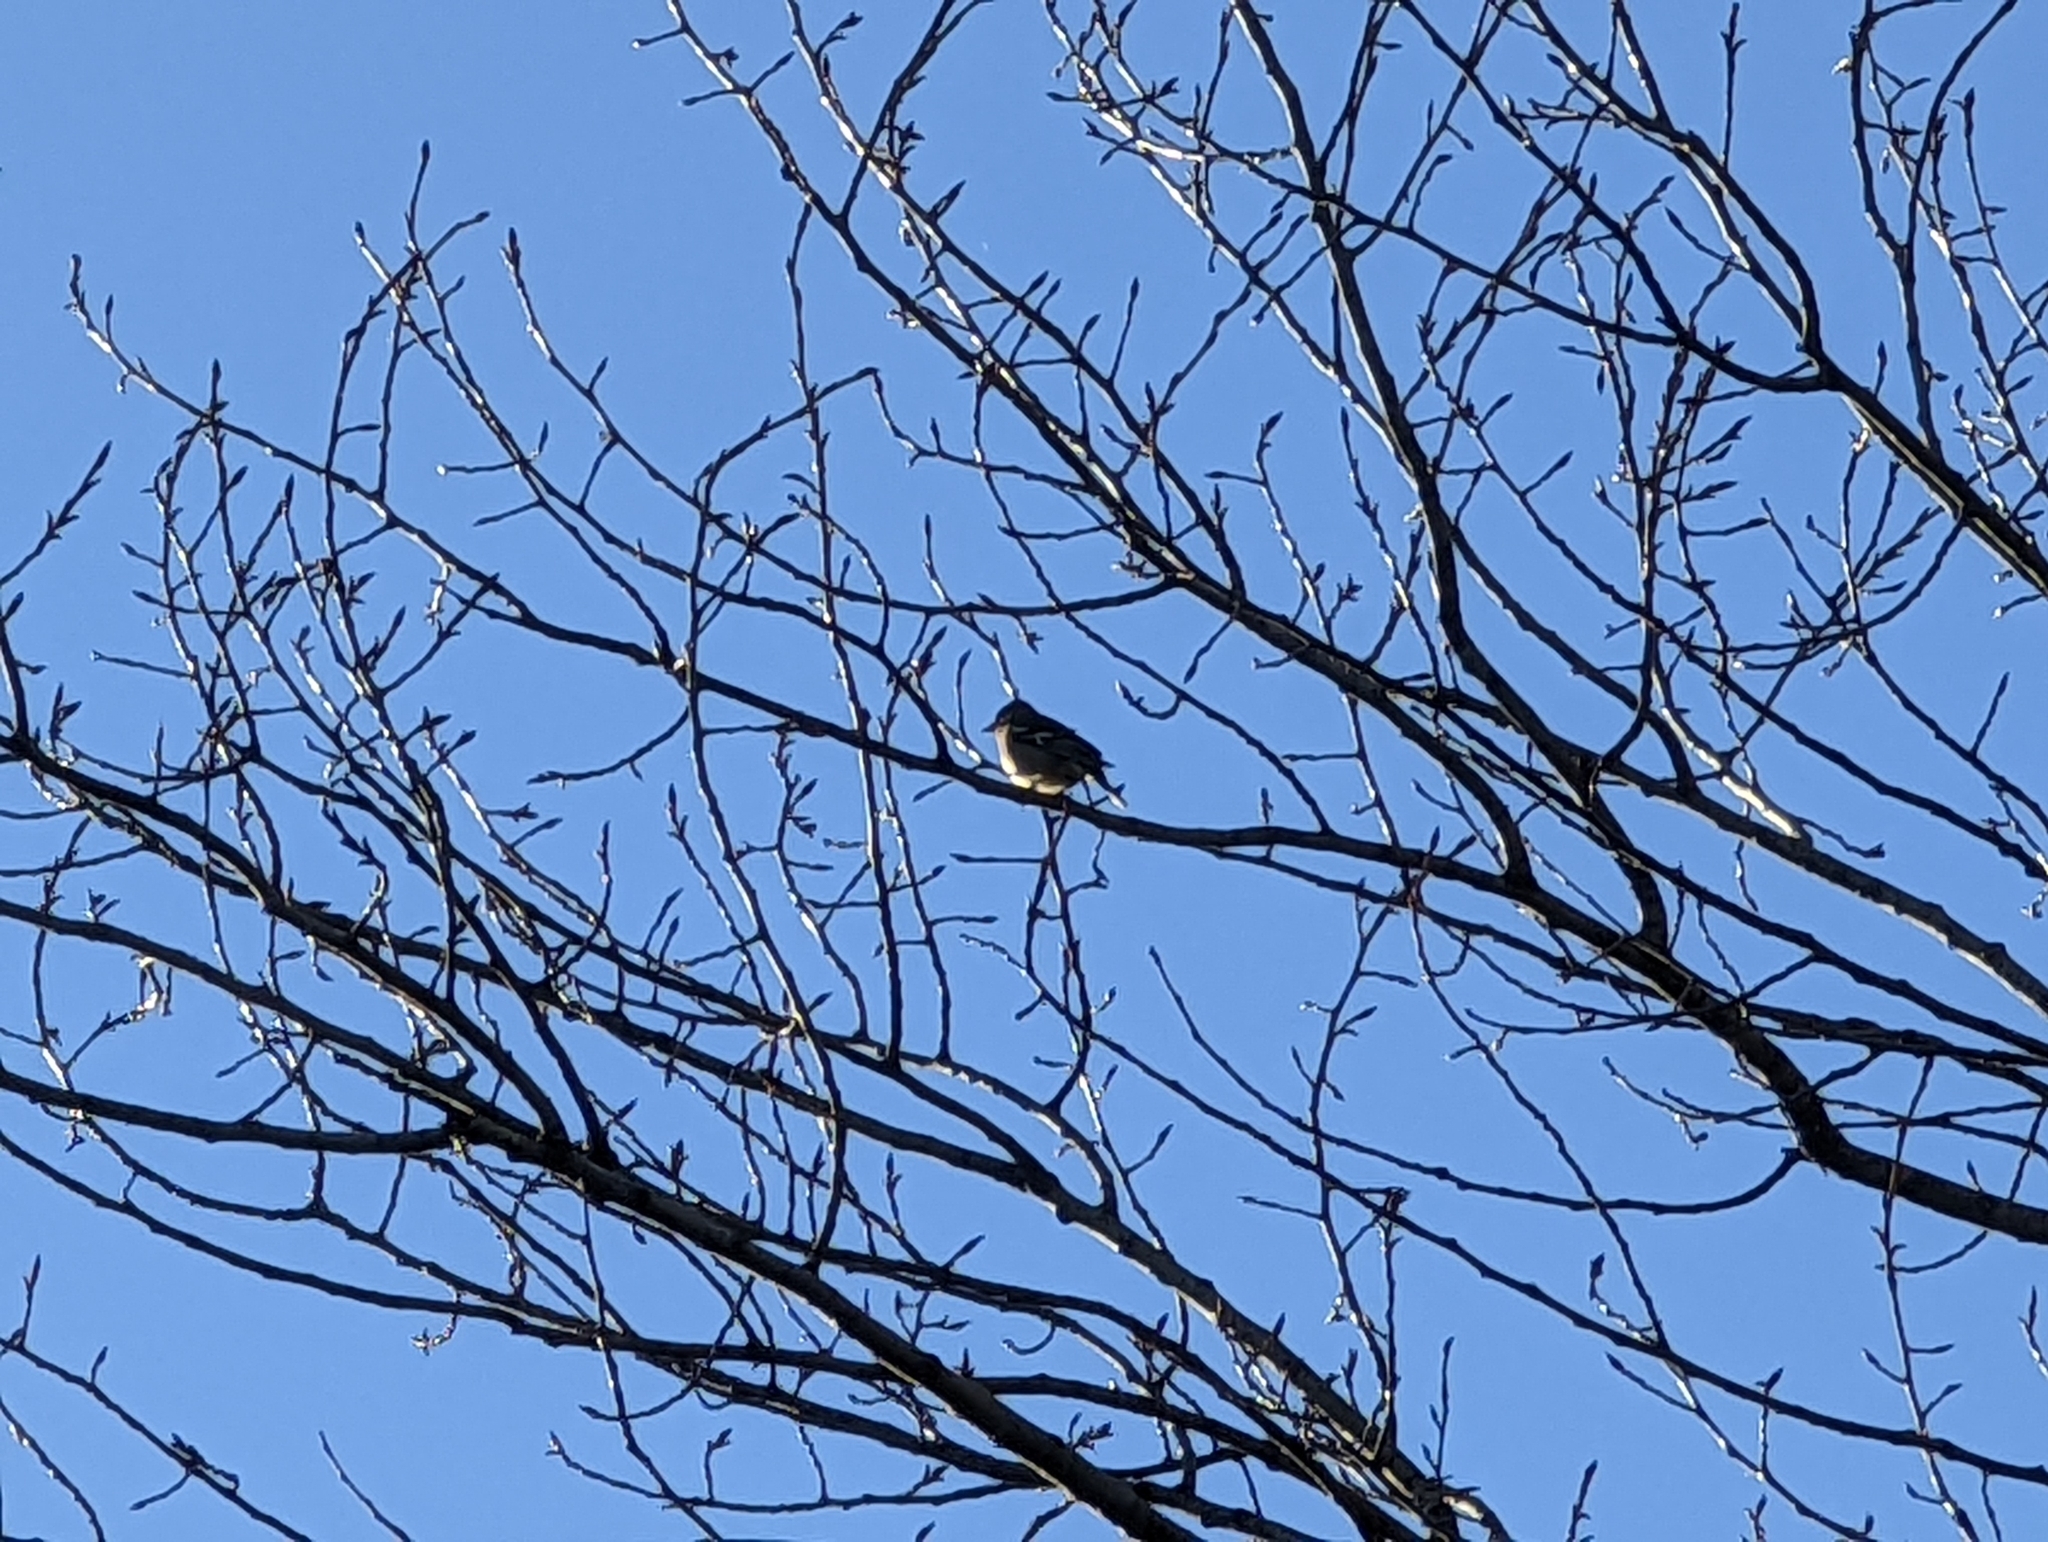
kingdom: Animalia
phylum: Chordata
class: Aves
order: Passeriformes
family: Fringillidae
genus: Fringilla
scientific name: Fringilla coelebs
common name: Common chaffinch
